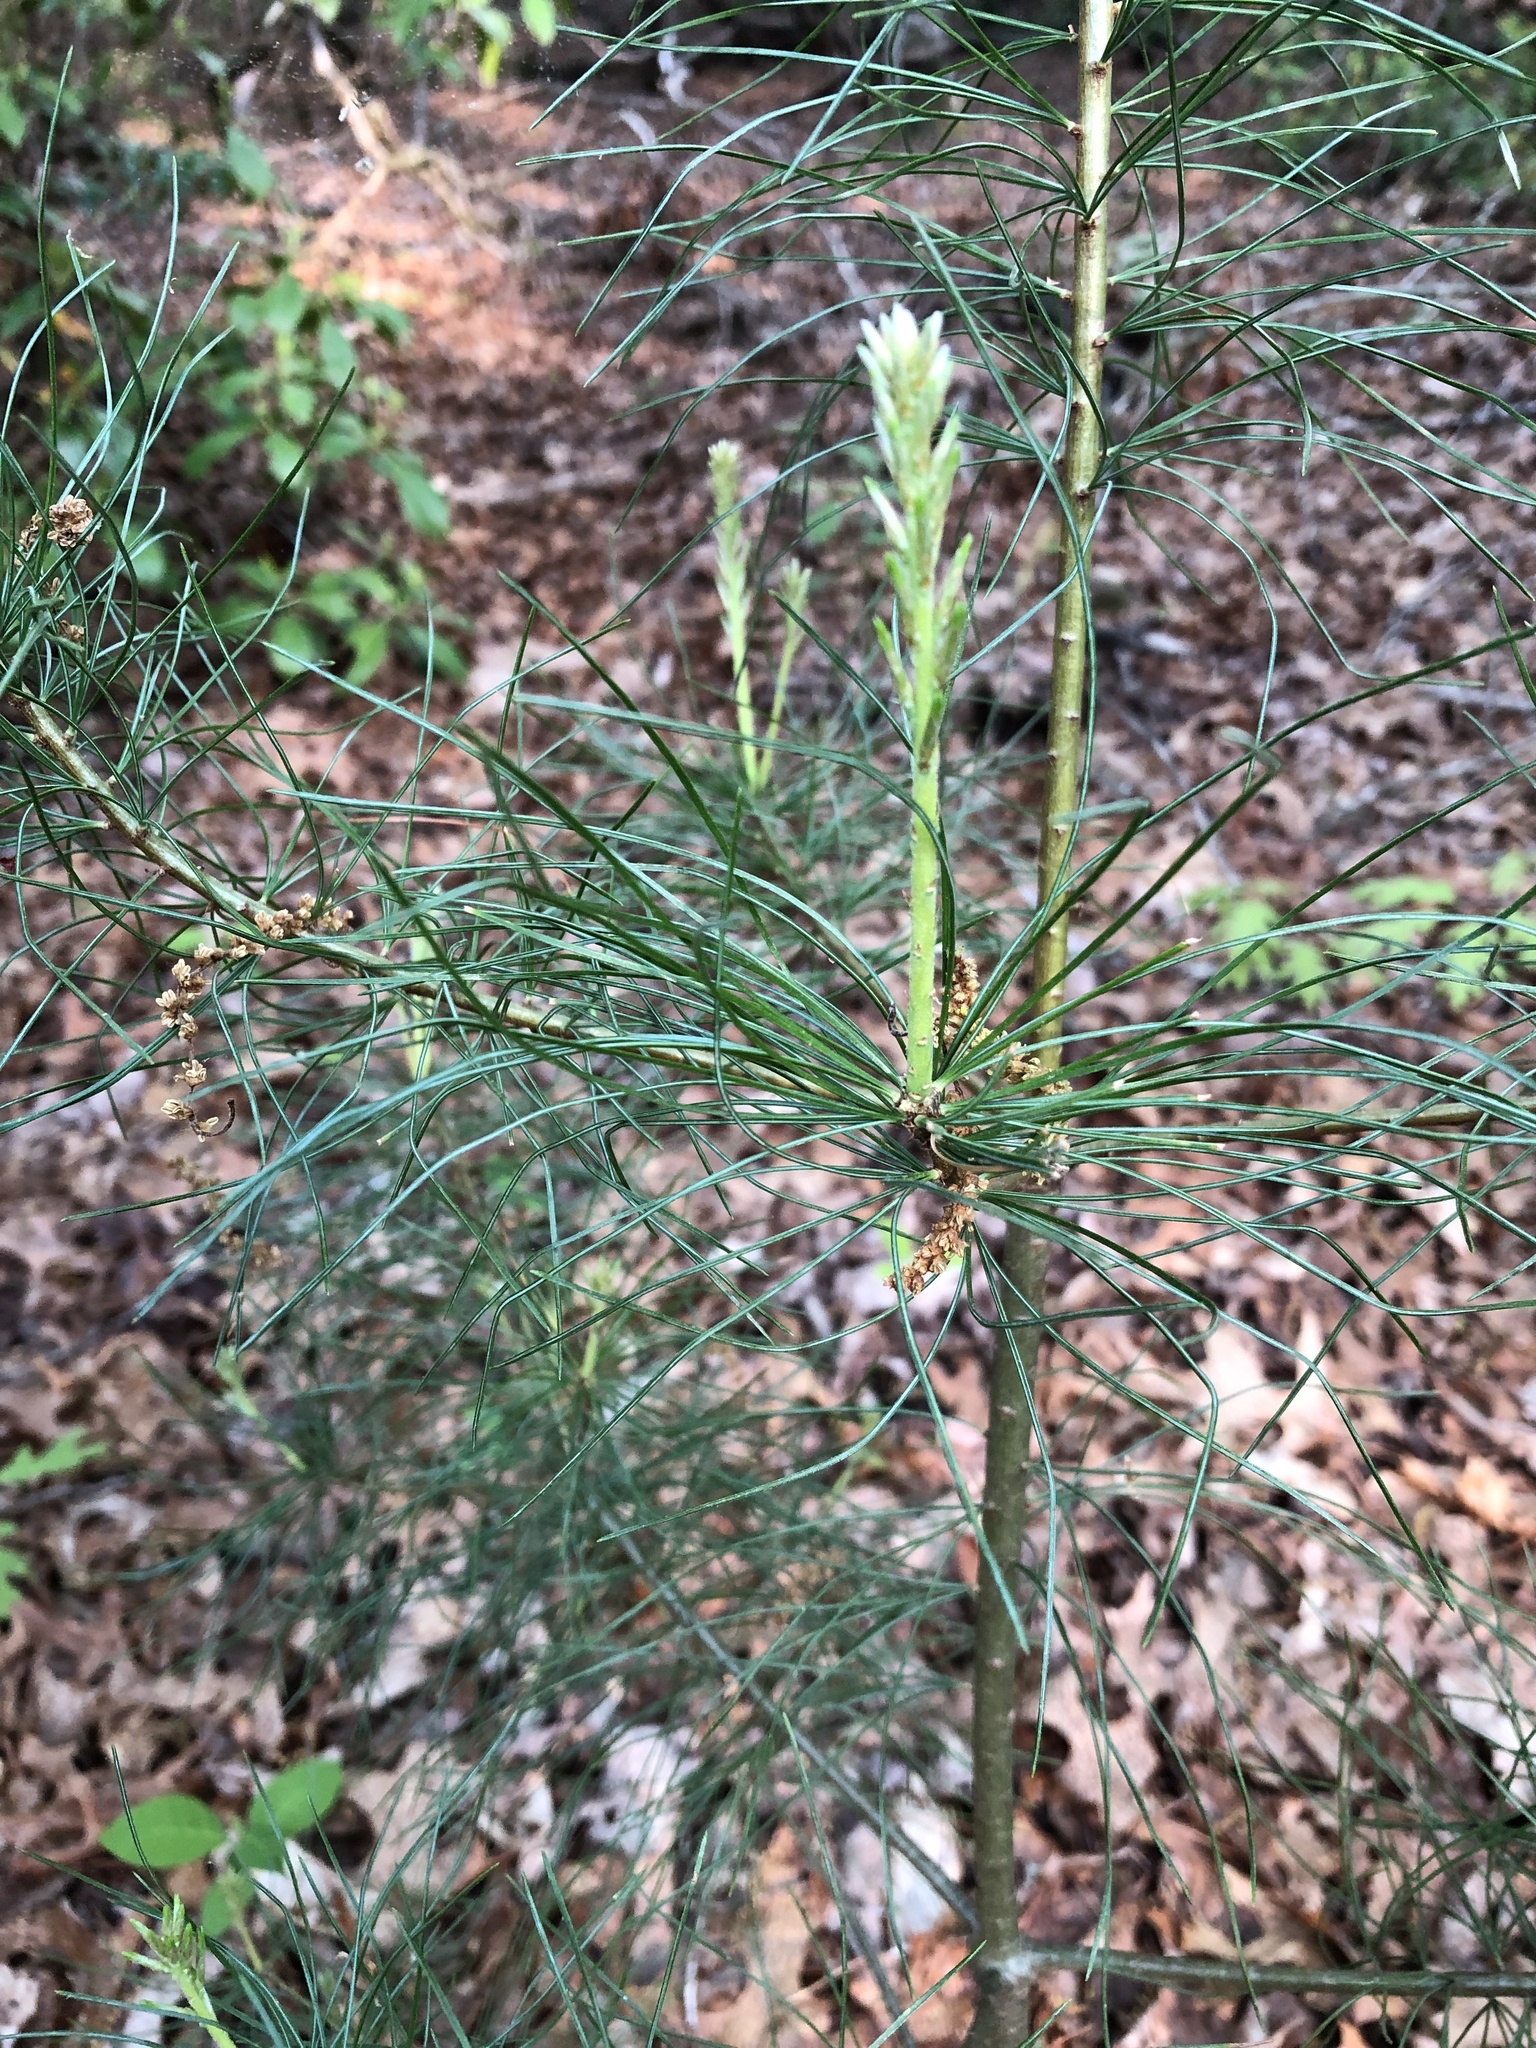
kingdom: Plantae
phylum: Tracheophyta
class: Pinopsida
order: Pinales
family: Pinaceae
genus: Pinus
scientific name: Pinus strobus
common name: Weymouth pine
